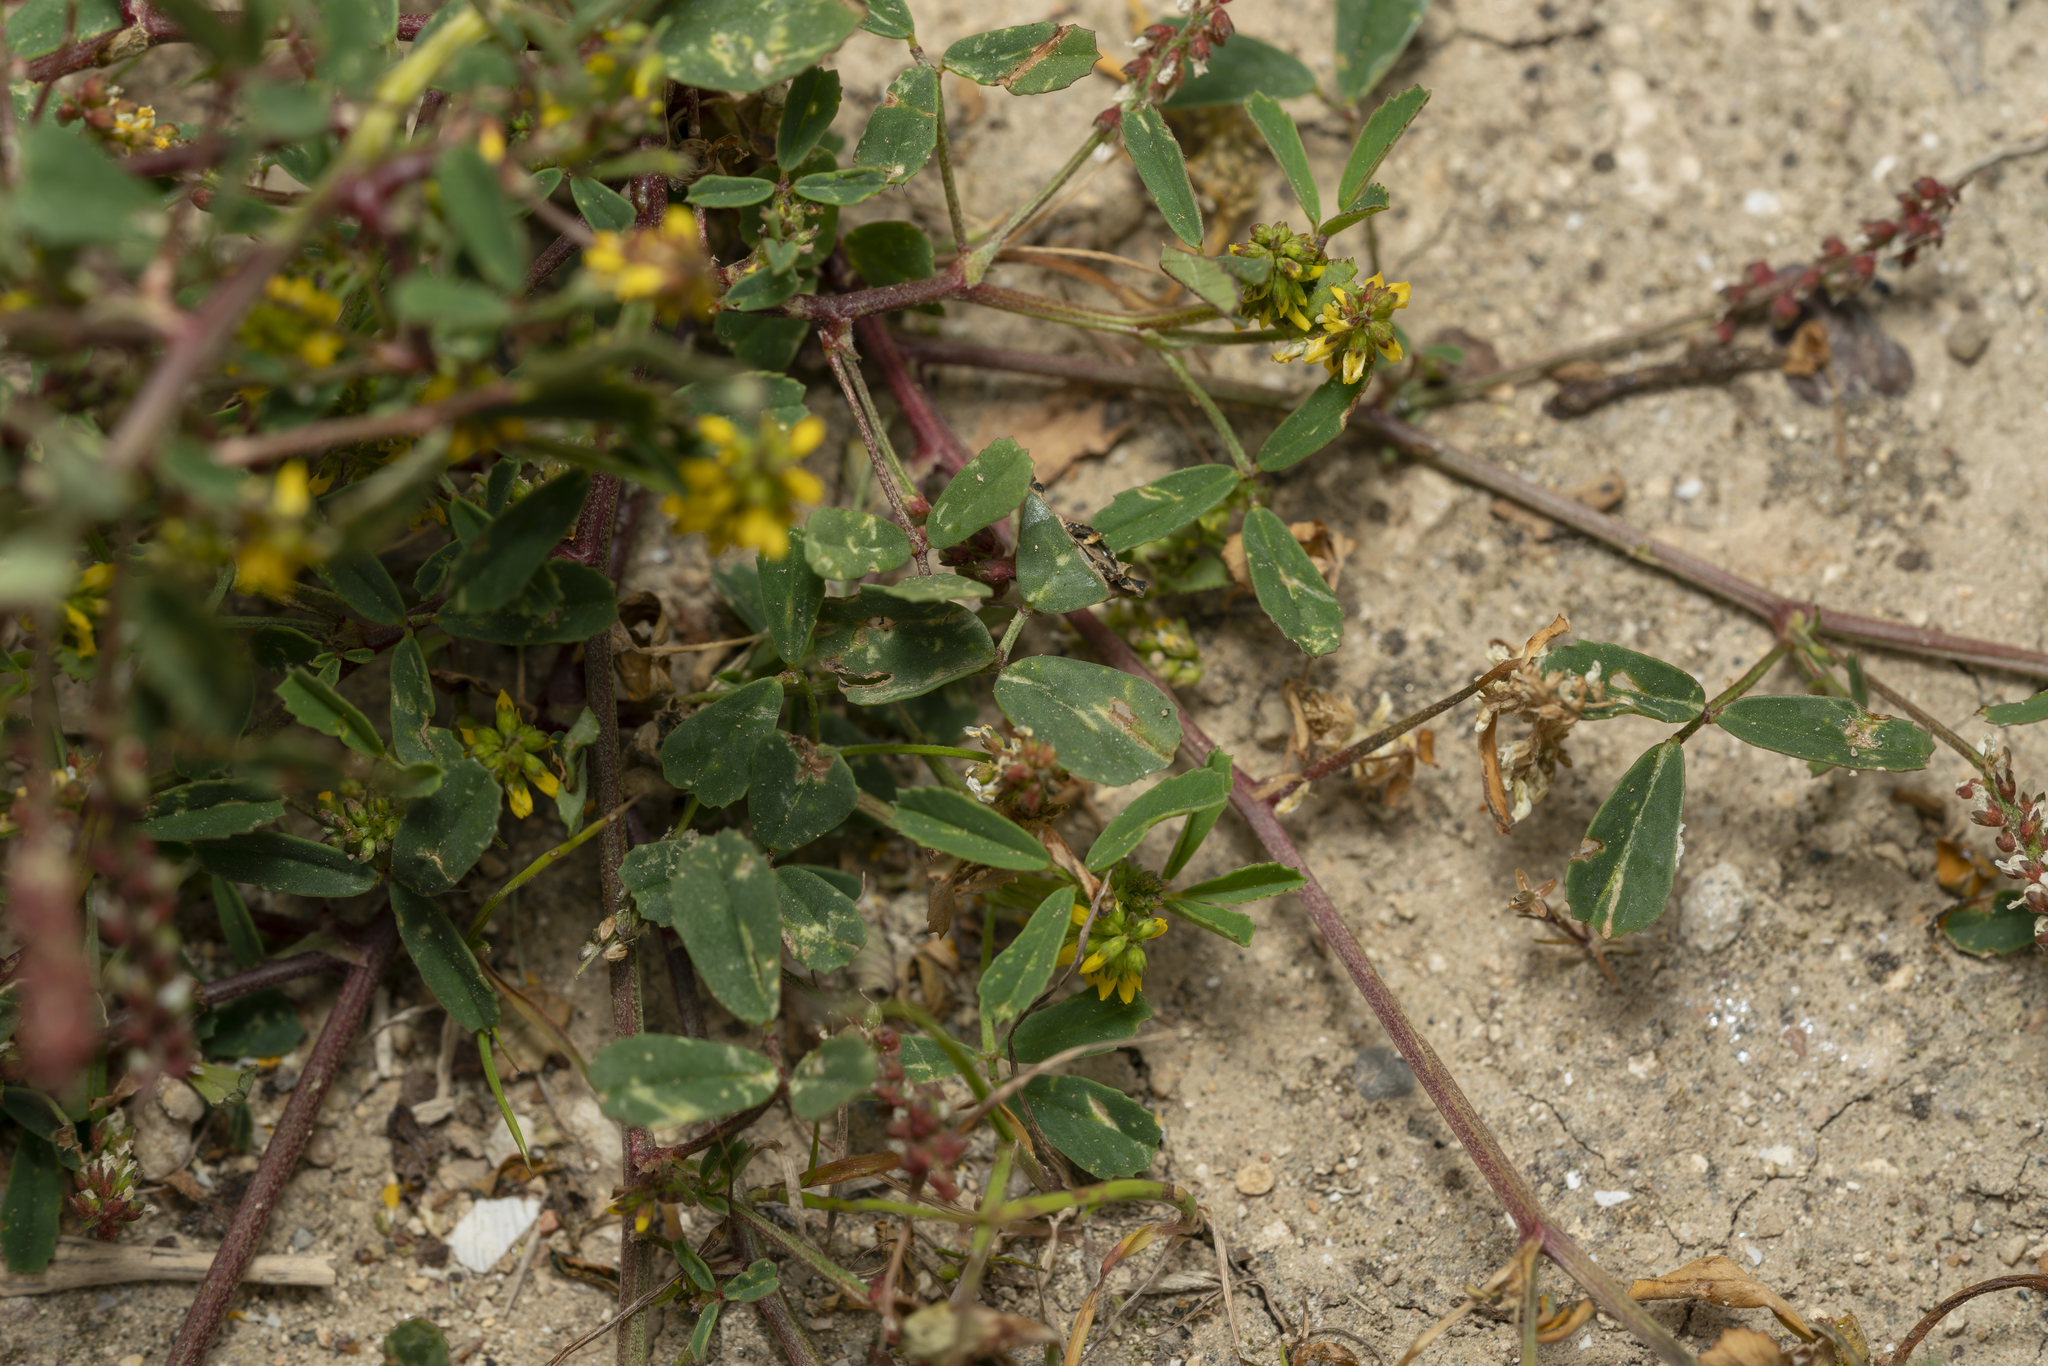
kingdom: Plantae
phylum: Tracheophyta
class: Magnoliopsida
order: Fabales
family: Fabaceae
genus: Melilotus
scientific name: Melilotus indicus
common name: Small melilot
